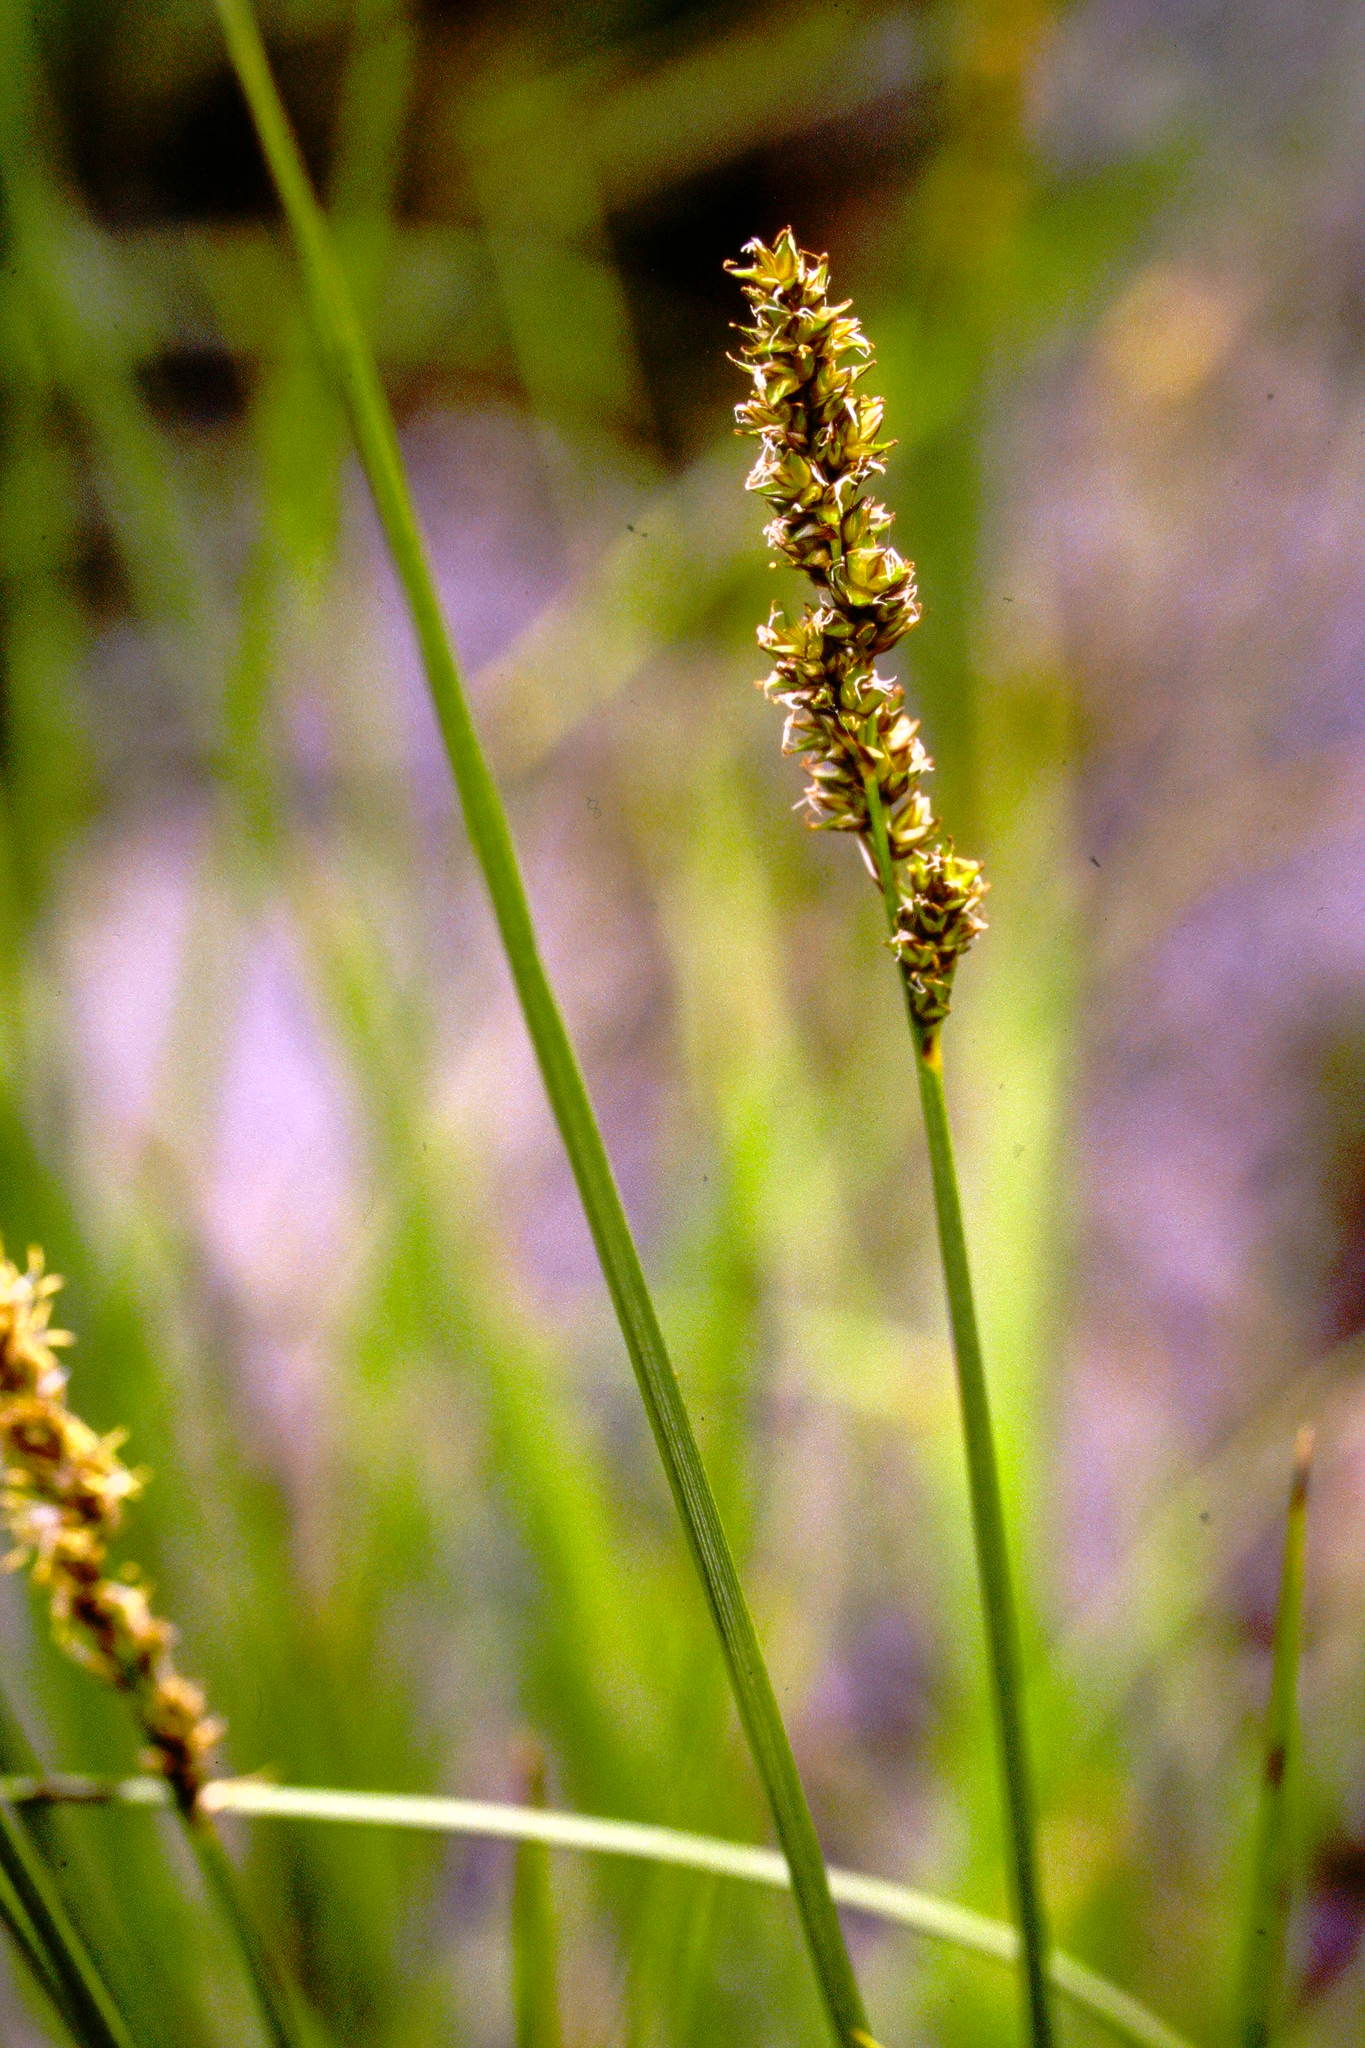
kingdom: Plantae
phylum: Tracheophyta
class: Liliopsida
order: Poales
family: Cyperaceae
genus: Carex
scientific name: Carex diandra
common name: Lesser tussock-sedge
